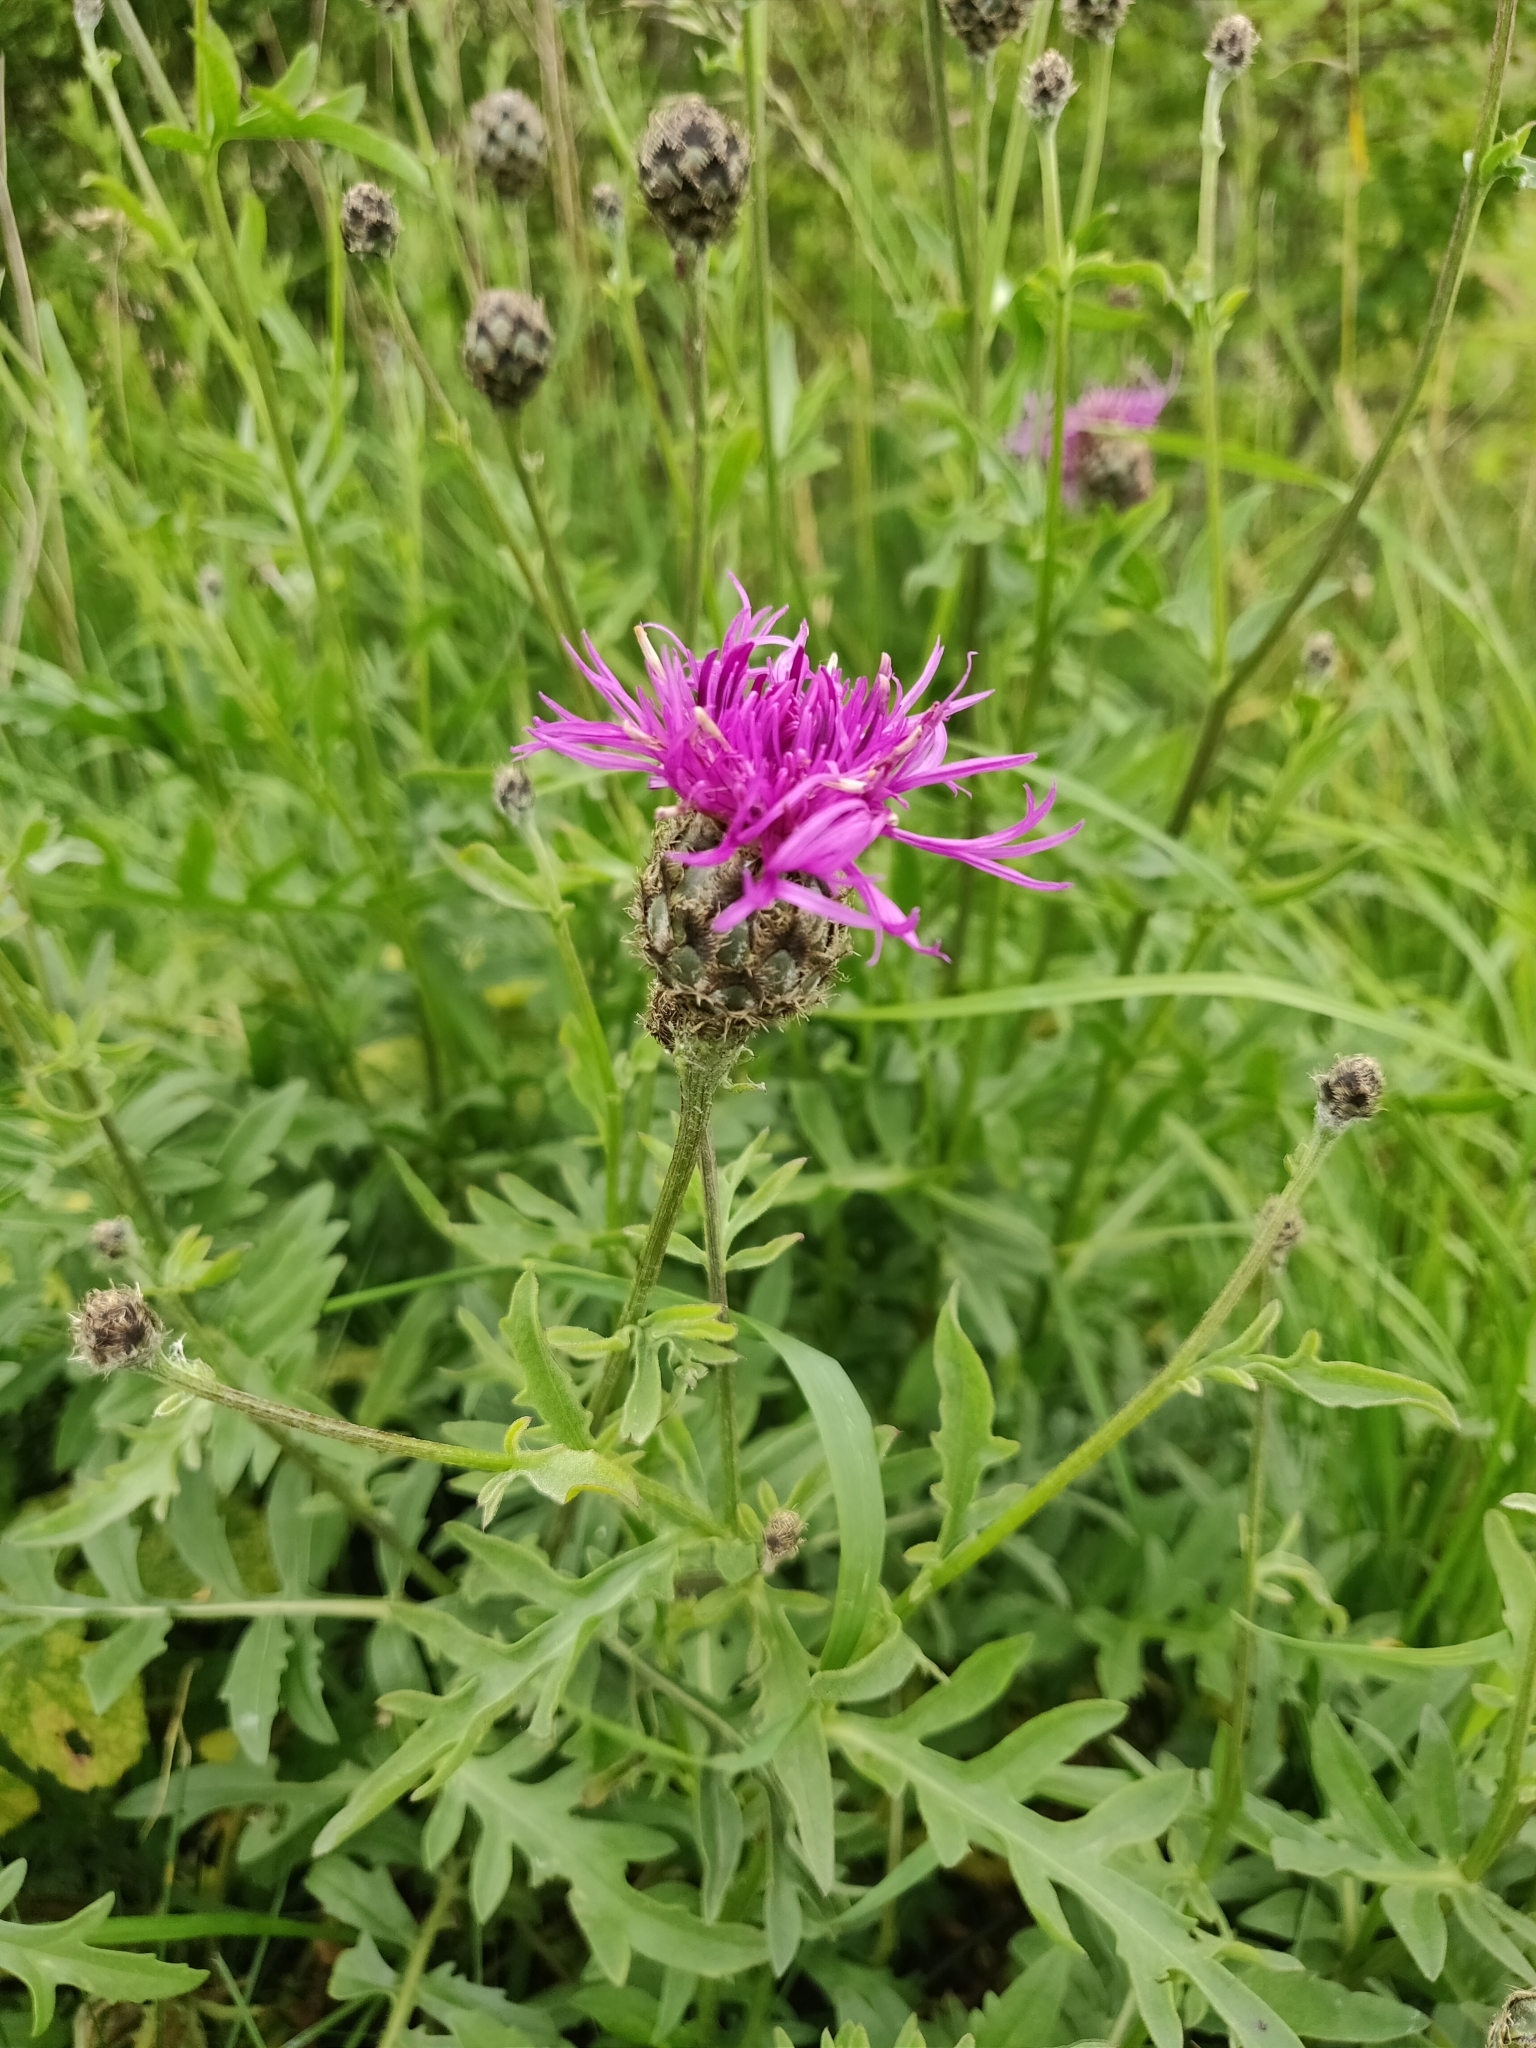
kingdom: Plantae
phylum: Tracheophyta
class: Magnoliopsida
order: Asterales
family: Asteraceae
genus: Centaurea
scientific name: Centaurea scabiosa
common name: Greater knapweed
